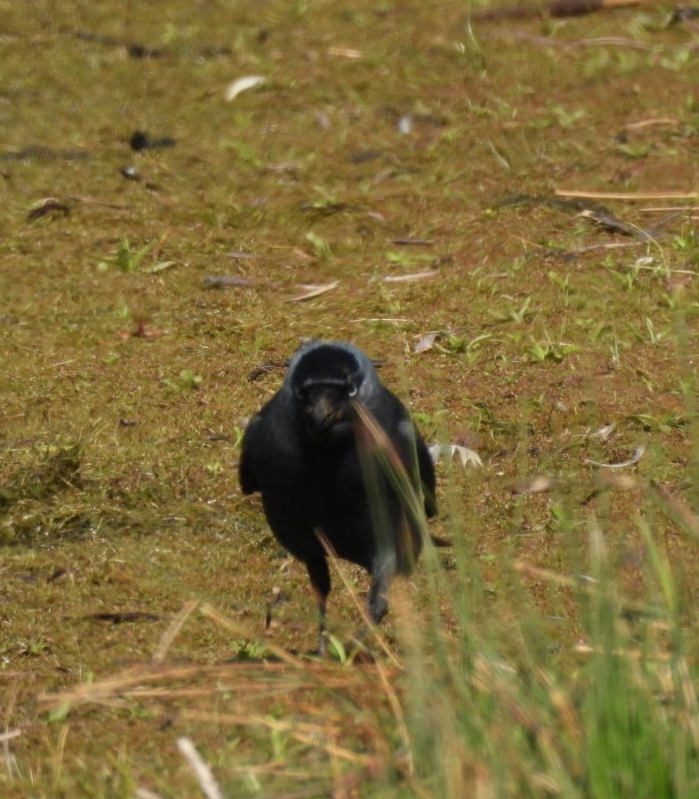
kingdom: Animalia
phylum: Chordata
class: Aves
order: Passeriformes
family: Corvidae
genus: Coloeus
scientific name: Coloeus monedula
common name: Western jackdaw
